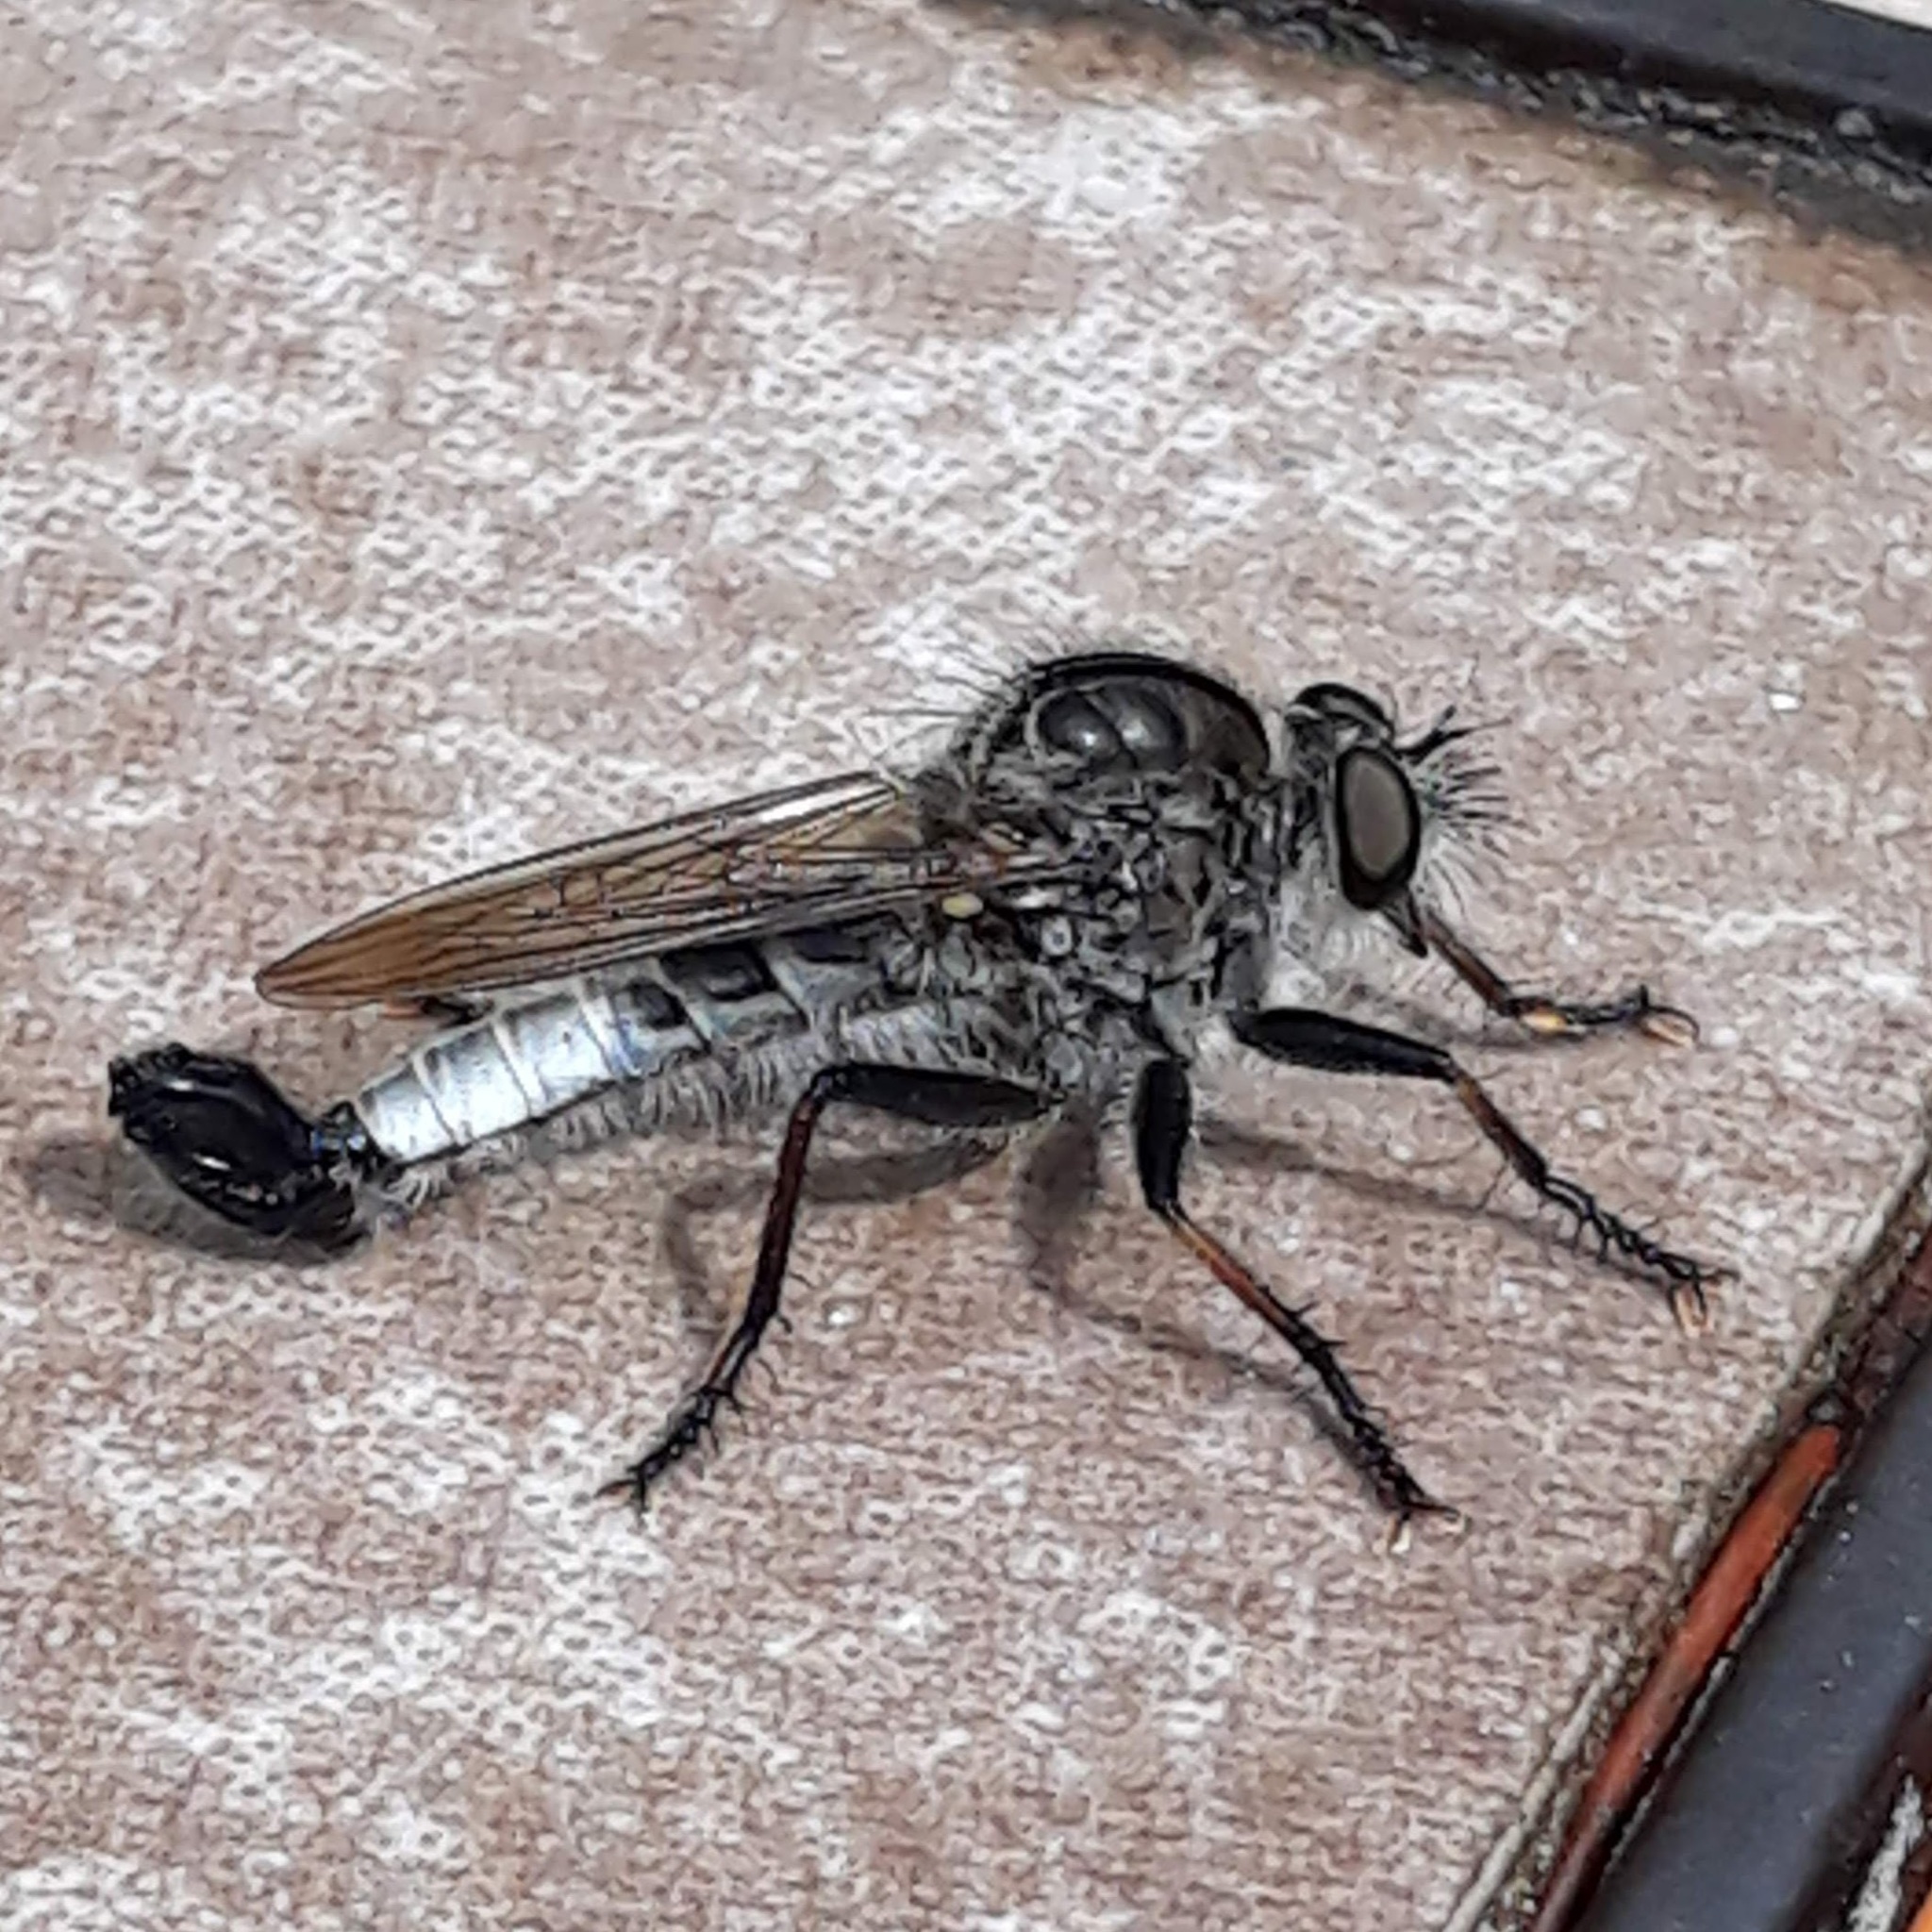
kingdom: Animalia
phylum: Arthropoda
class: Insecta
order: Diptera
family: Asilidae
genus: Efferia
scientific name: Efferia aestuans
